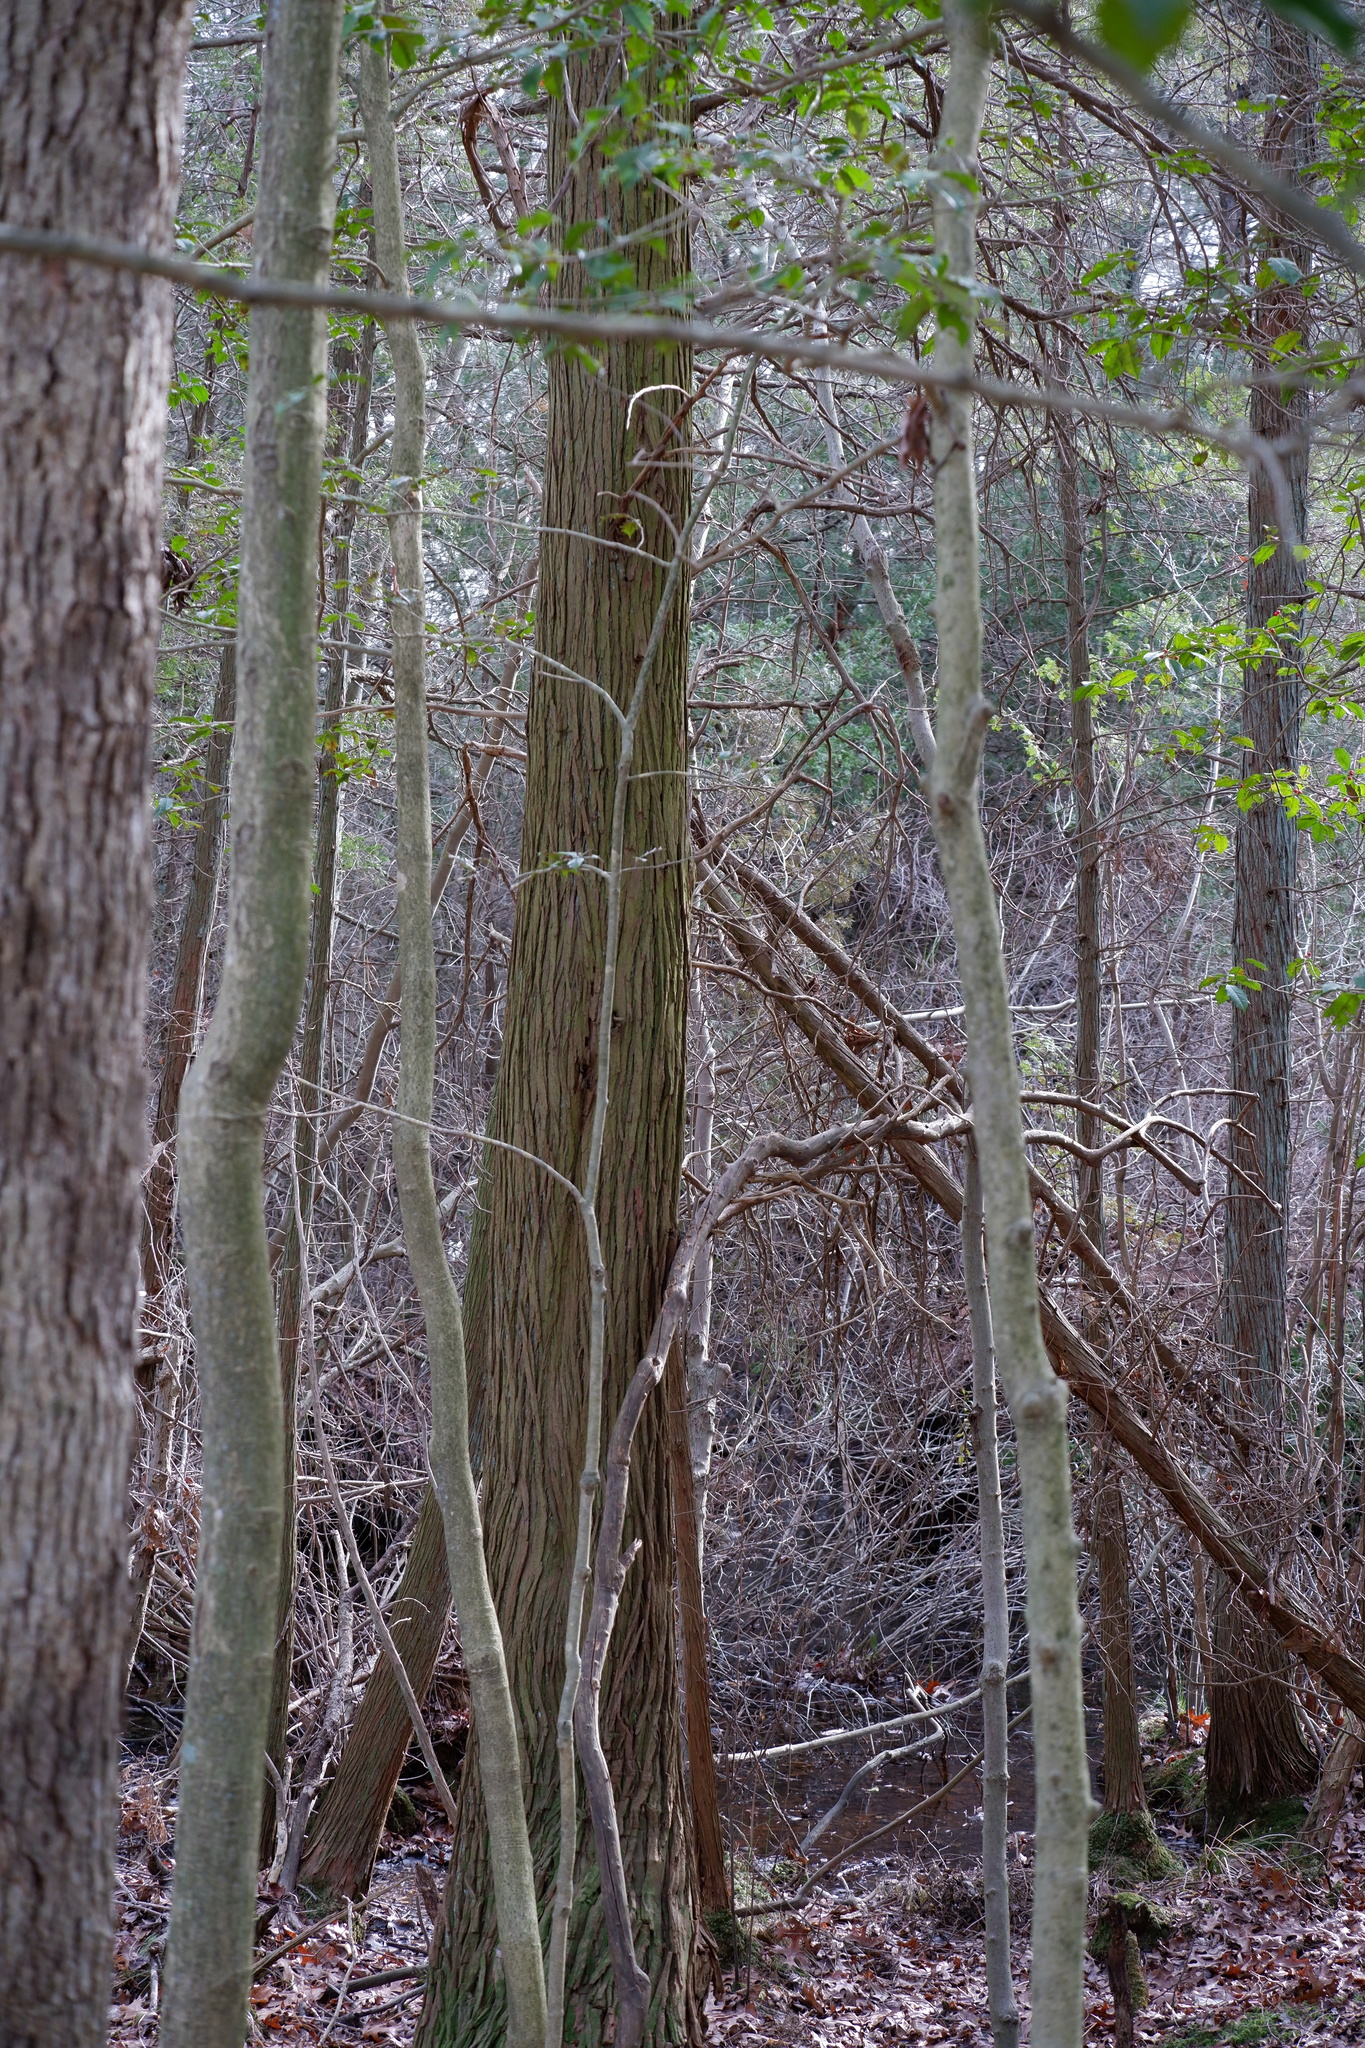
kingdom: Plantae
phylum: Tracheophyta
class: Pinopsida
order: Pinales
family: Cupressaceae
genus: Chamaecyparis
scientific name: Chamaecyparis thyoides
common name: Atlantic white cedar
